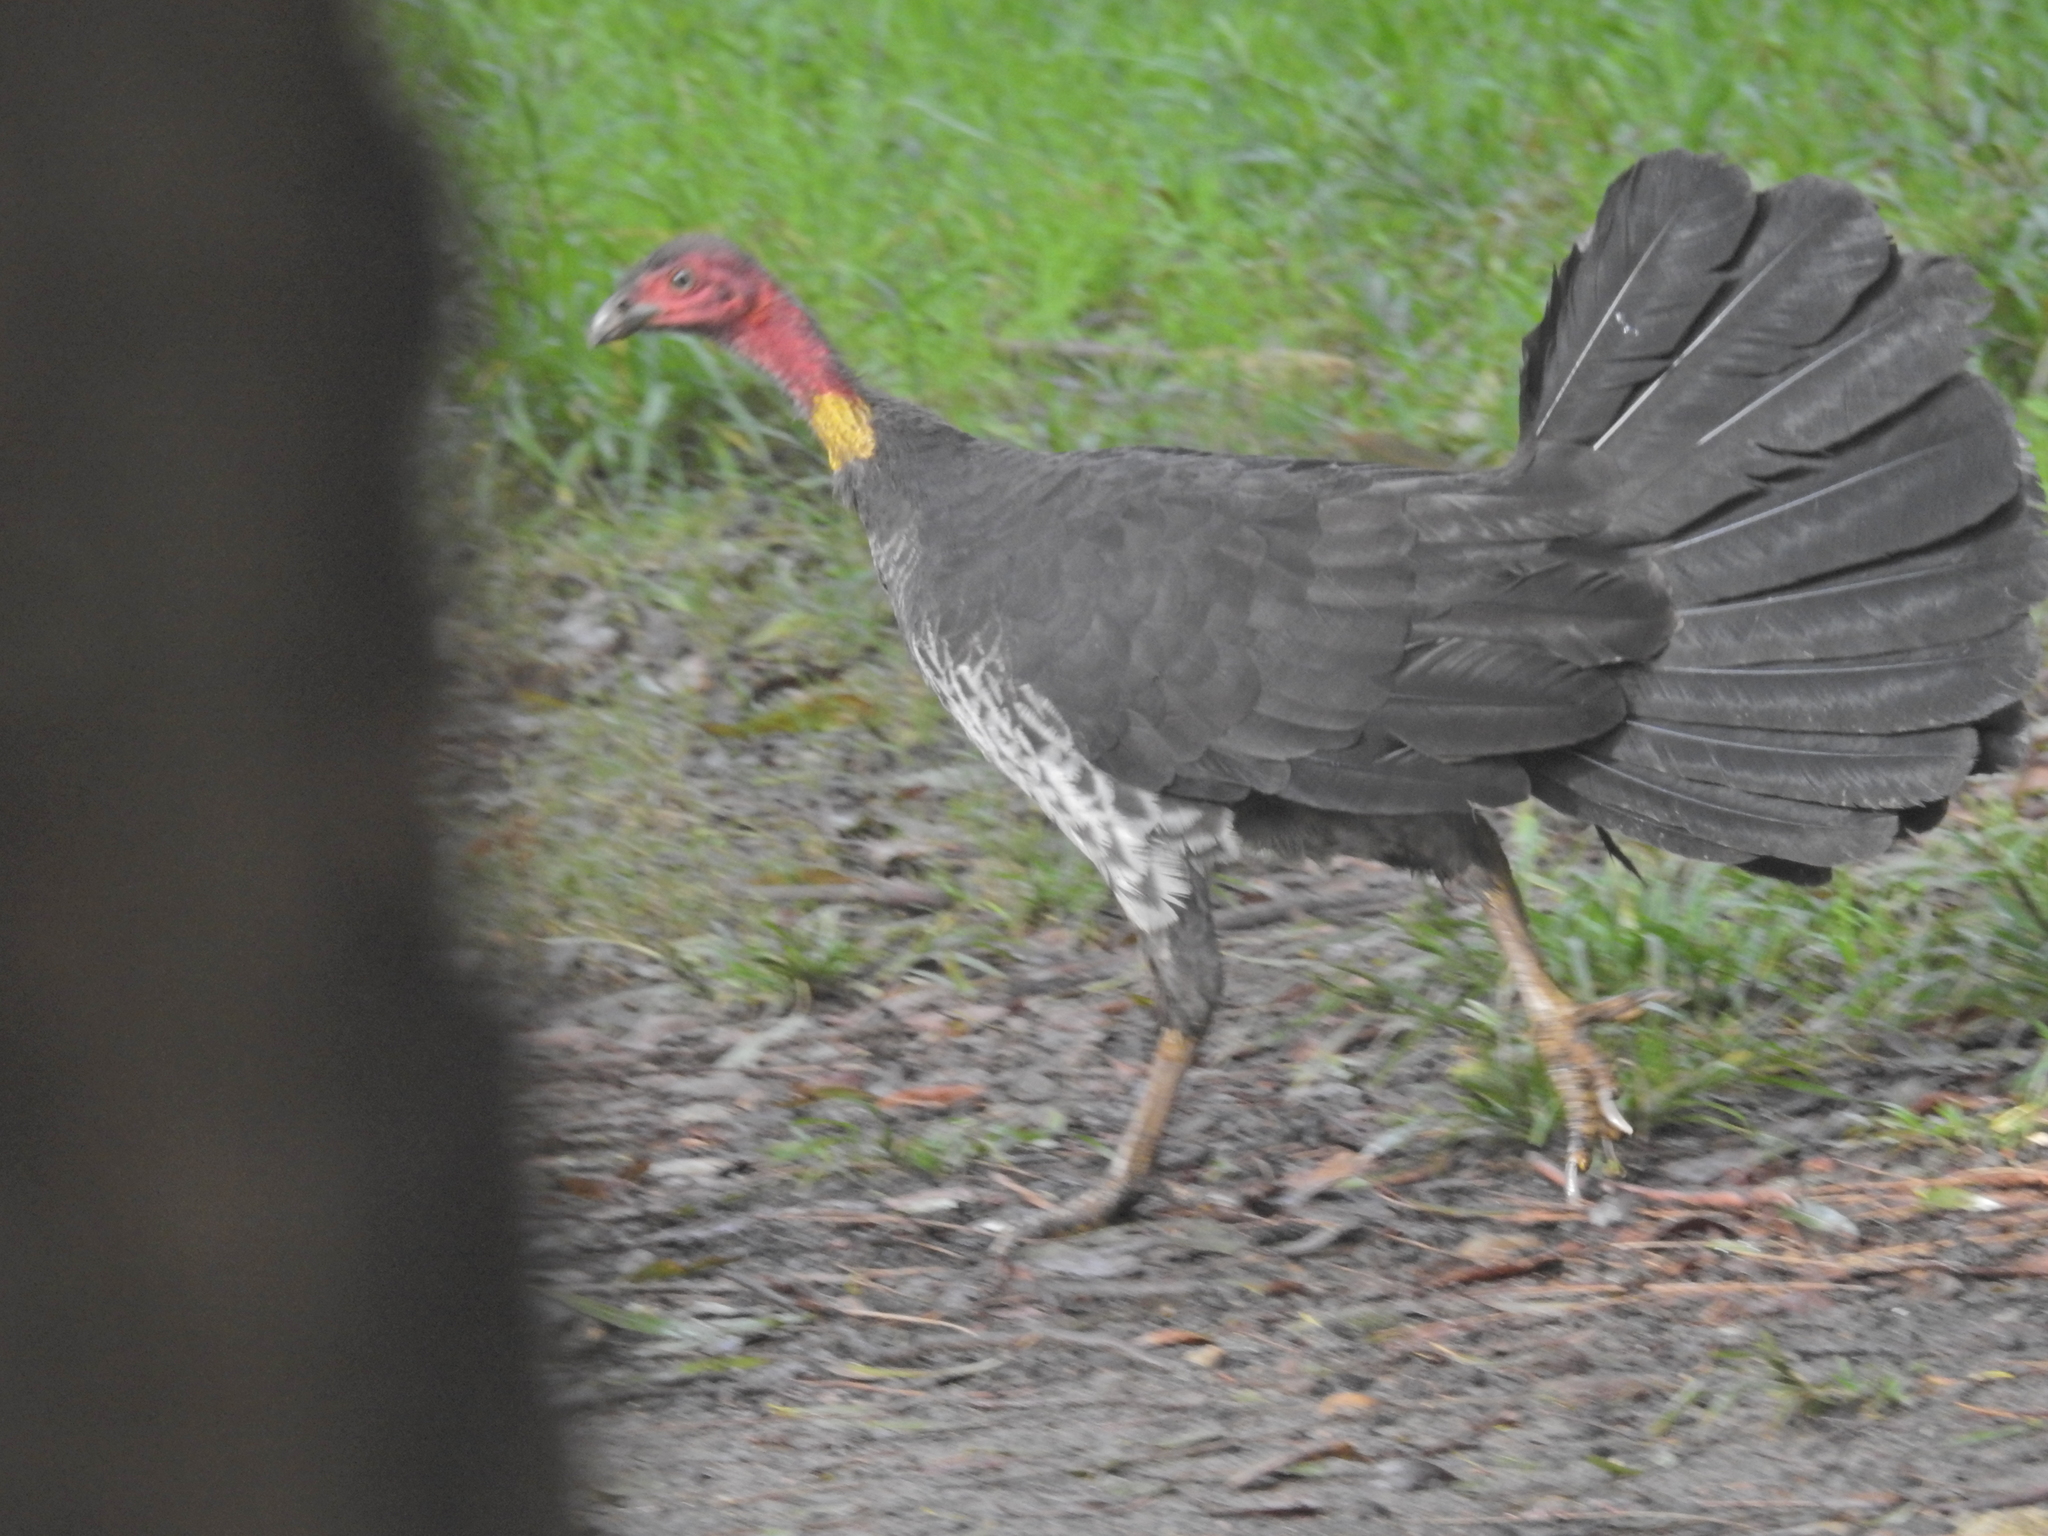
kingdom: Animalia
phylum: Chordata
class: Aves
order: Galliformes
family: Megapodiidae
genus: Alectura
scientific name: Alectura lathami
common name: Australian brushturkey
